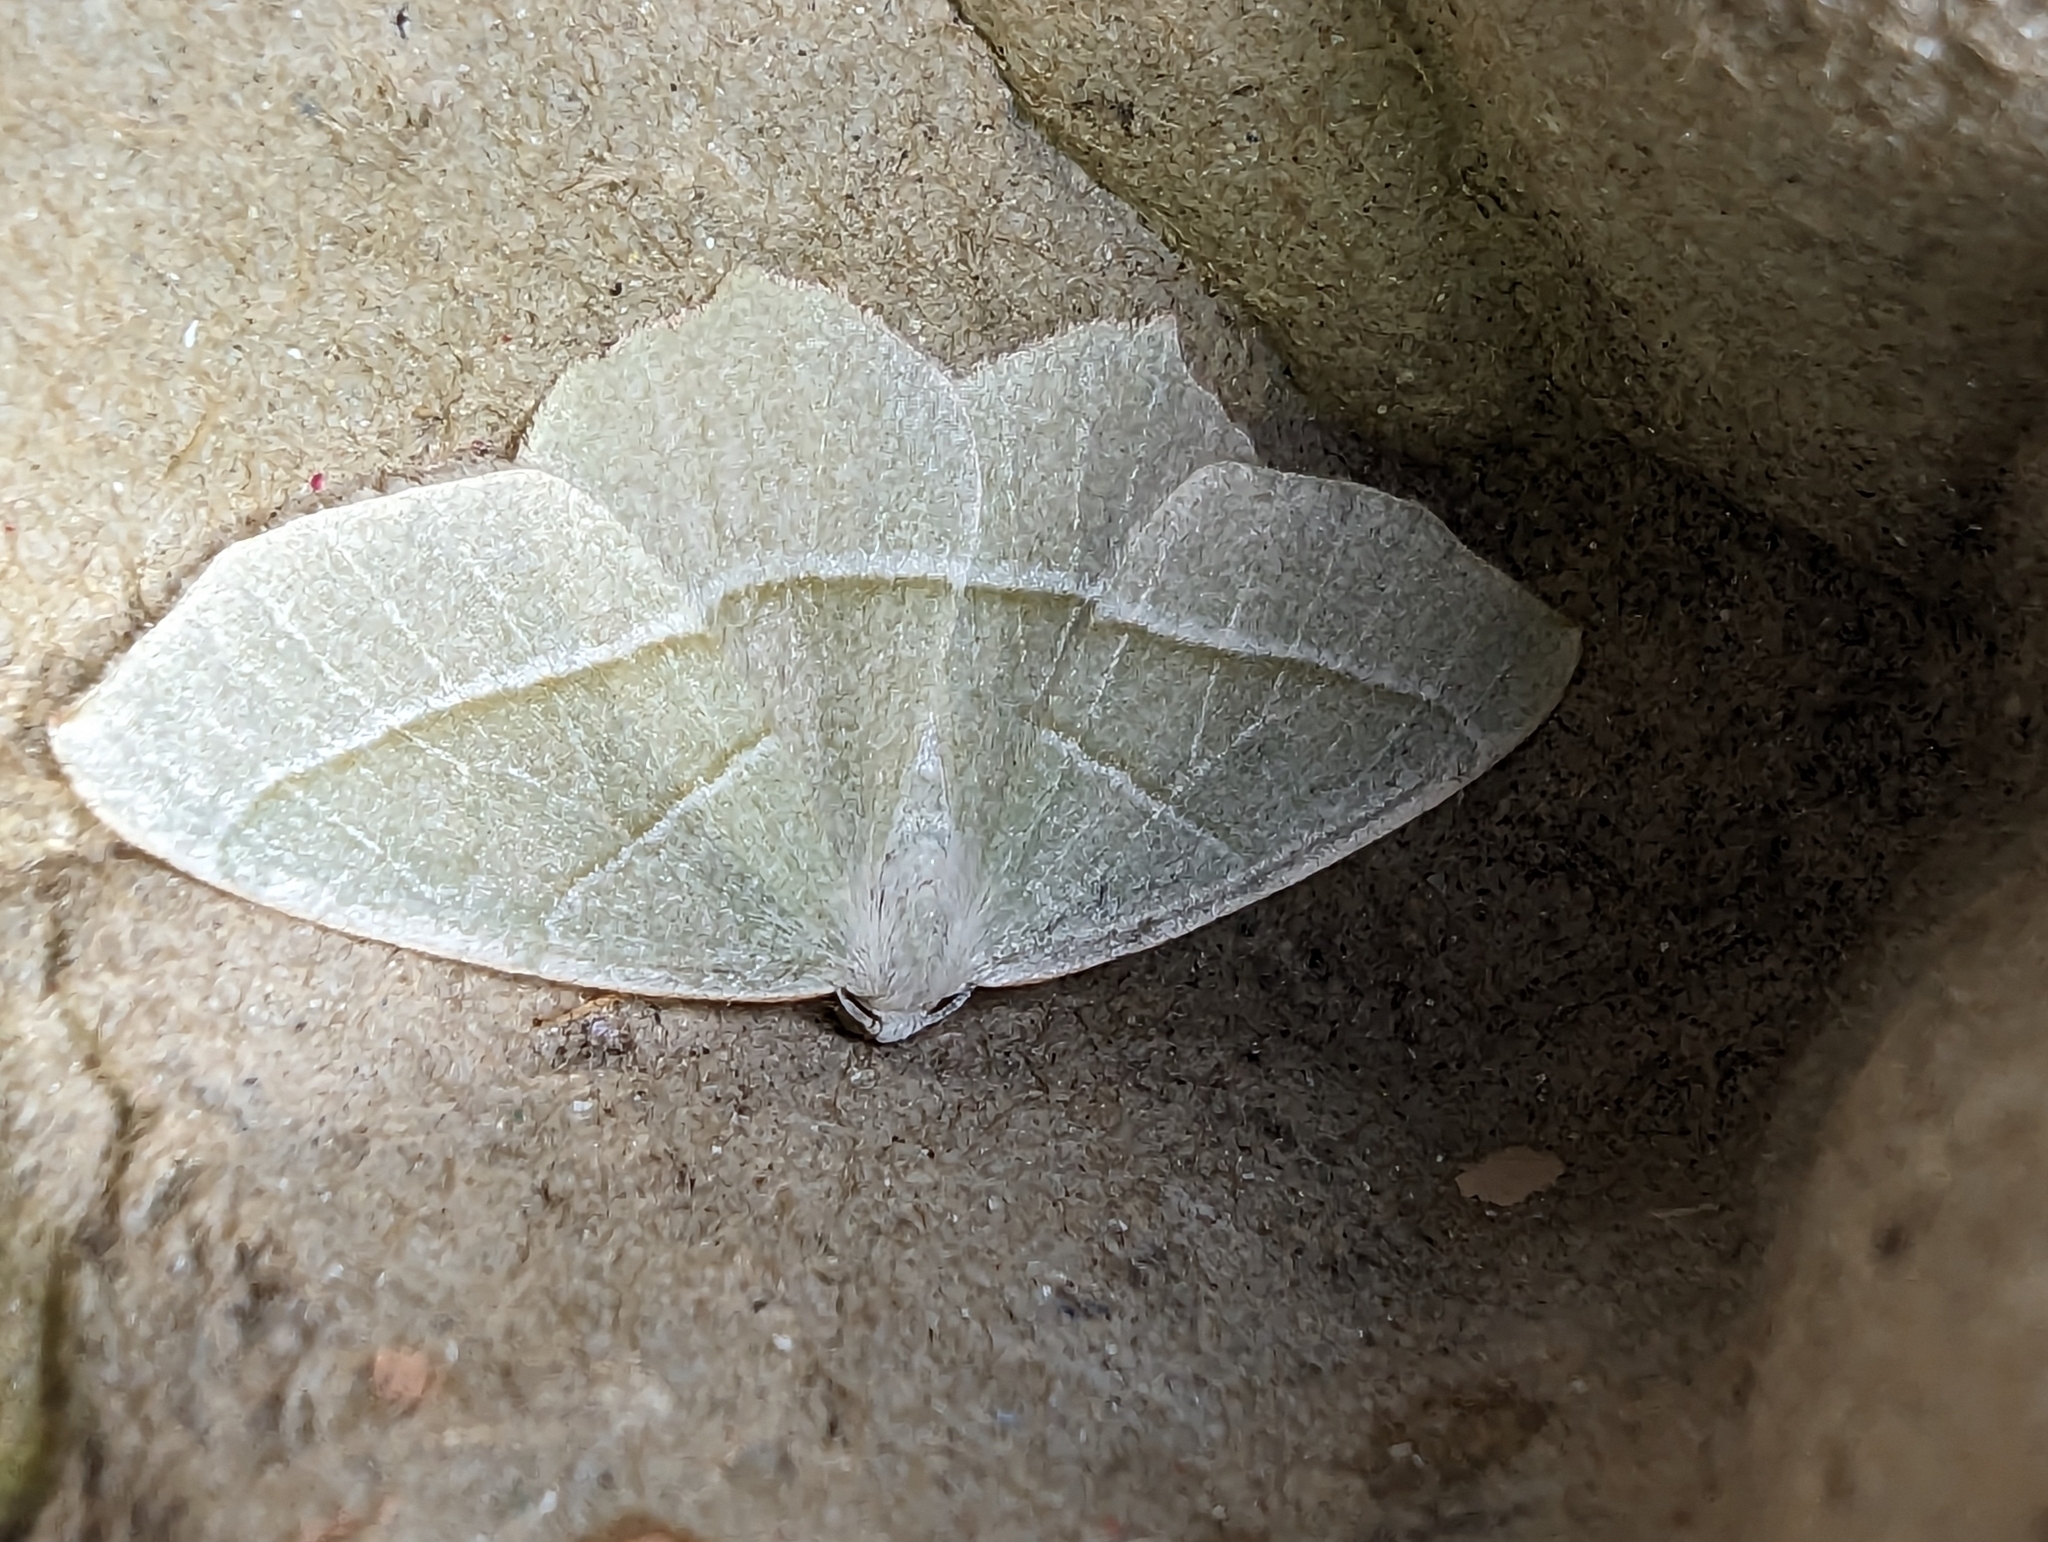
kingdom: Animalia
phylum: Arthropoda
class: Insecta
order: Lepidoptera
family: Geometridae
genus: Campaea
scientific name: Campaea margaritaria
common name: Light emerald
